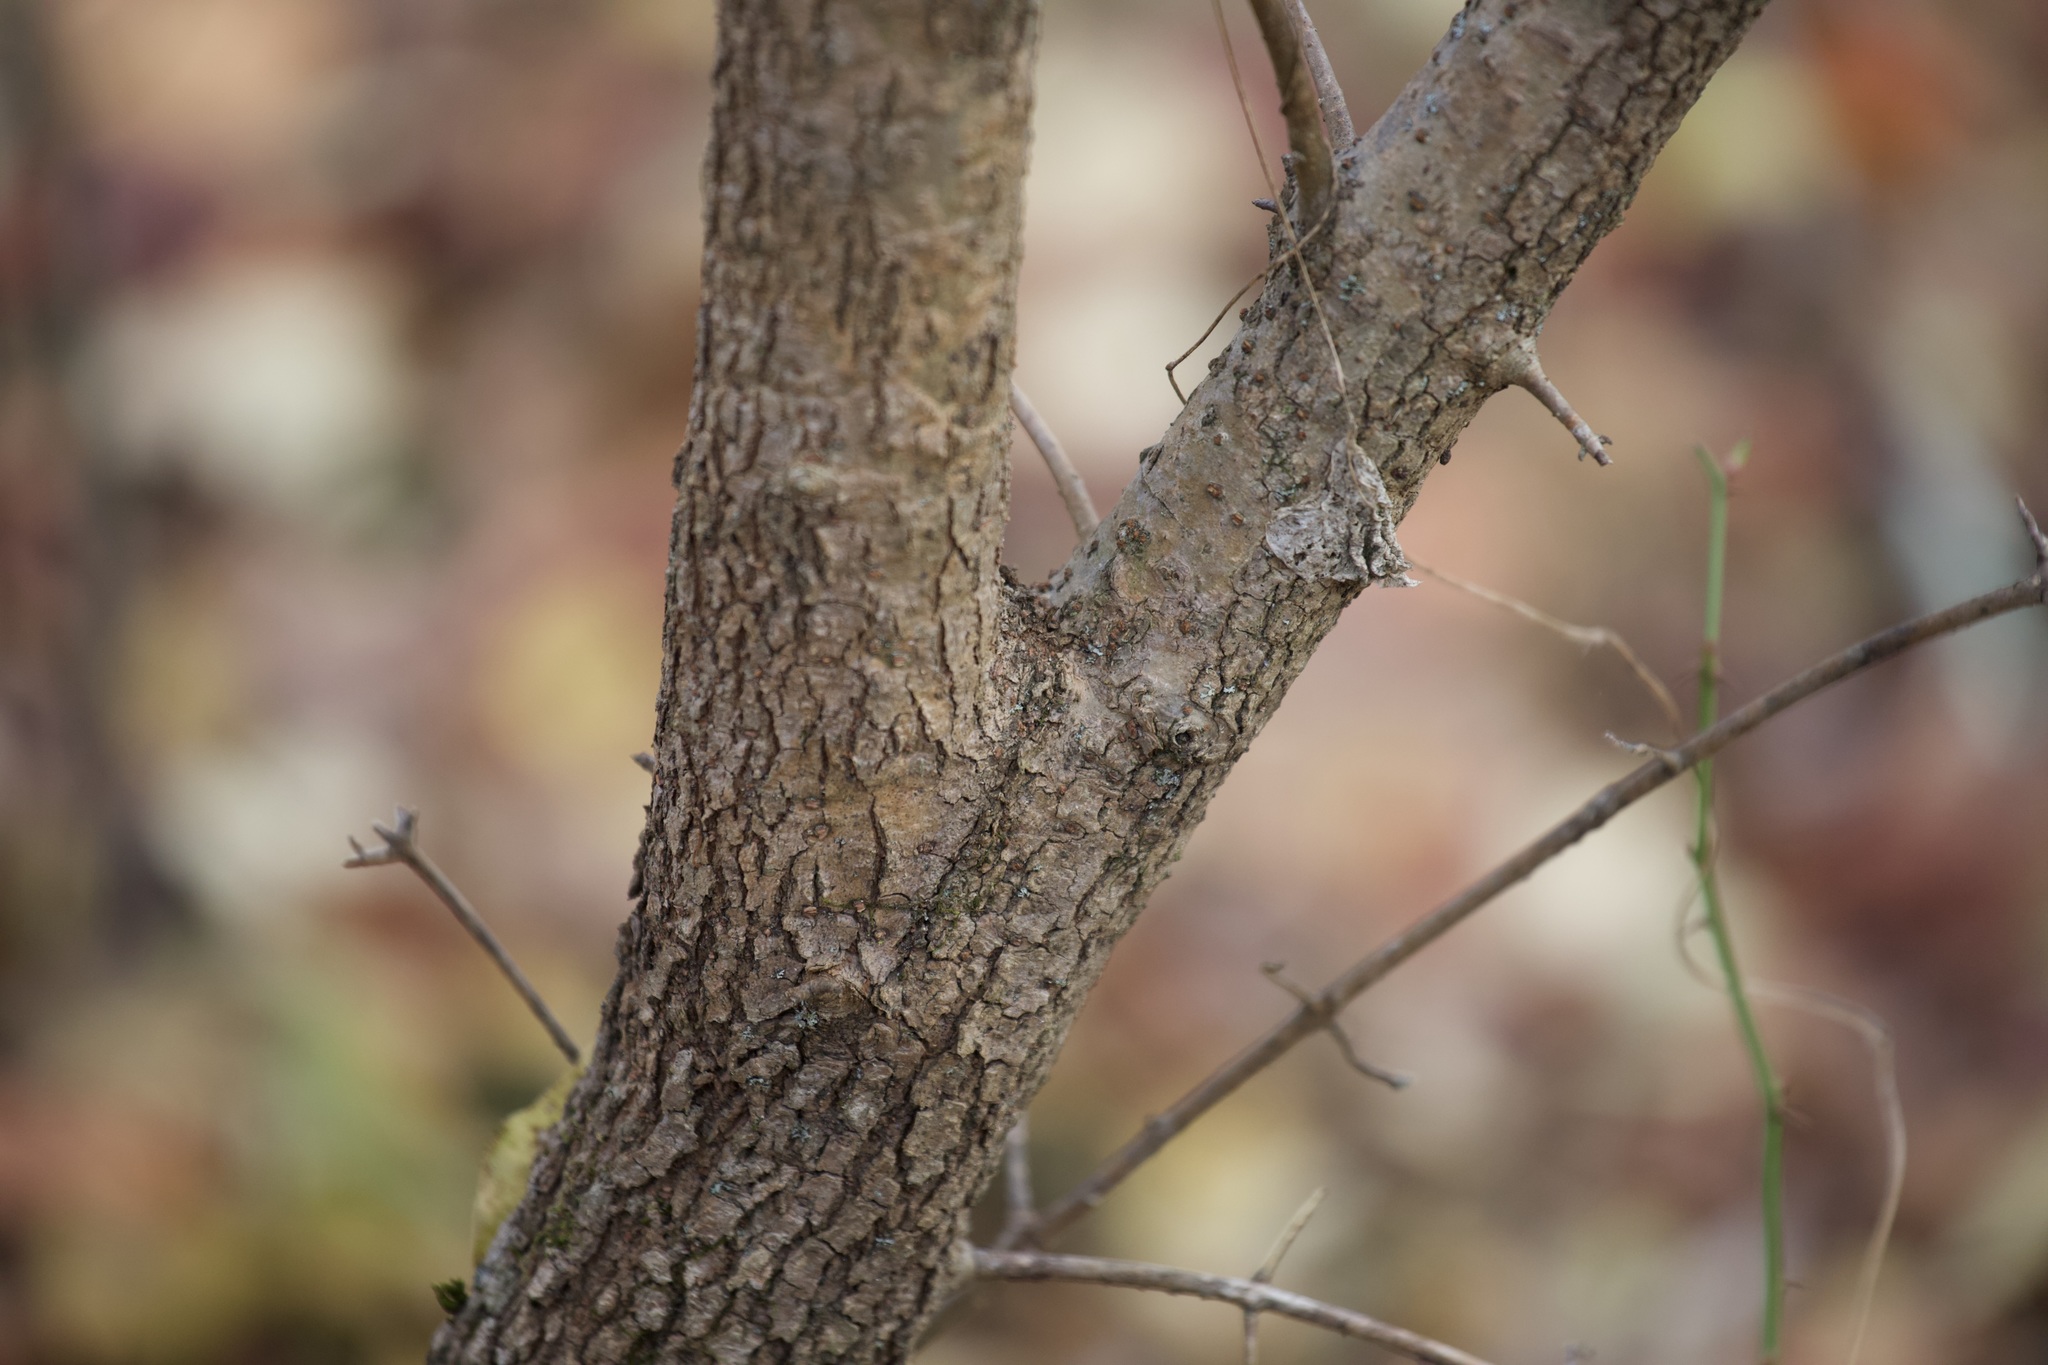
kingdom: Plantae
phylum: Tracheophyta
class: Magnoliopsida
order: Dipsacales
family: Viburnaceae
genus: Viburnum
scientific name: Viburnum prunifolium
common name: Black haw
